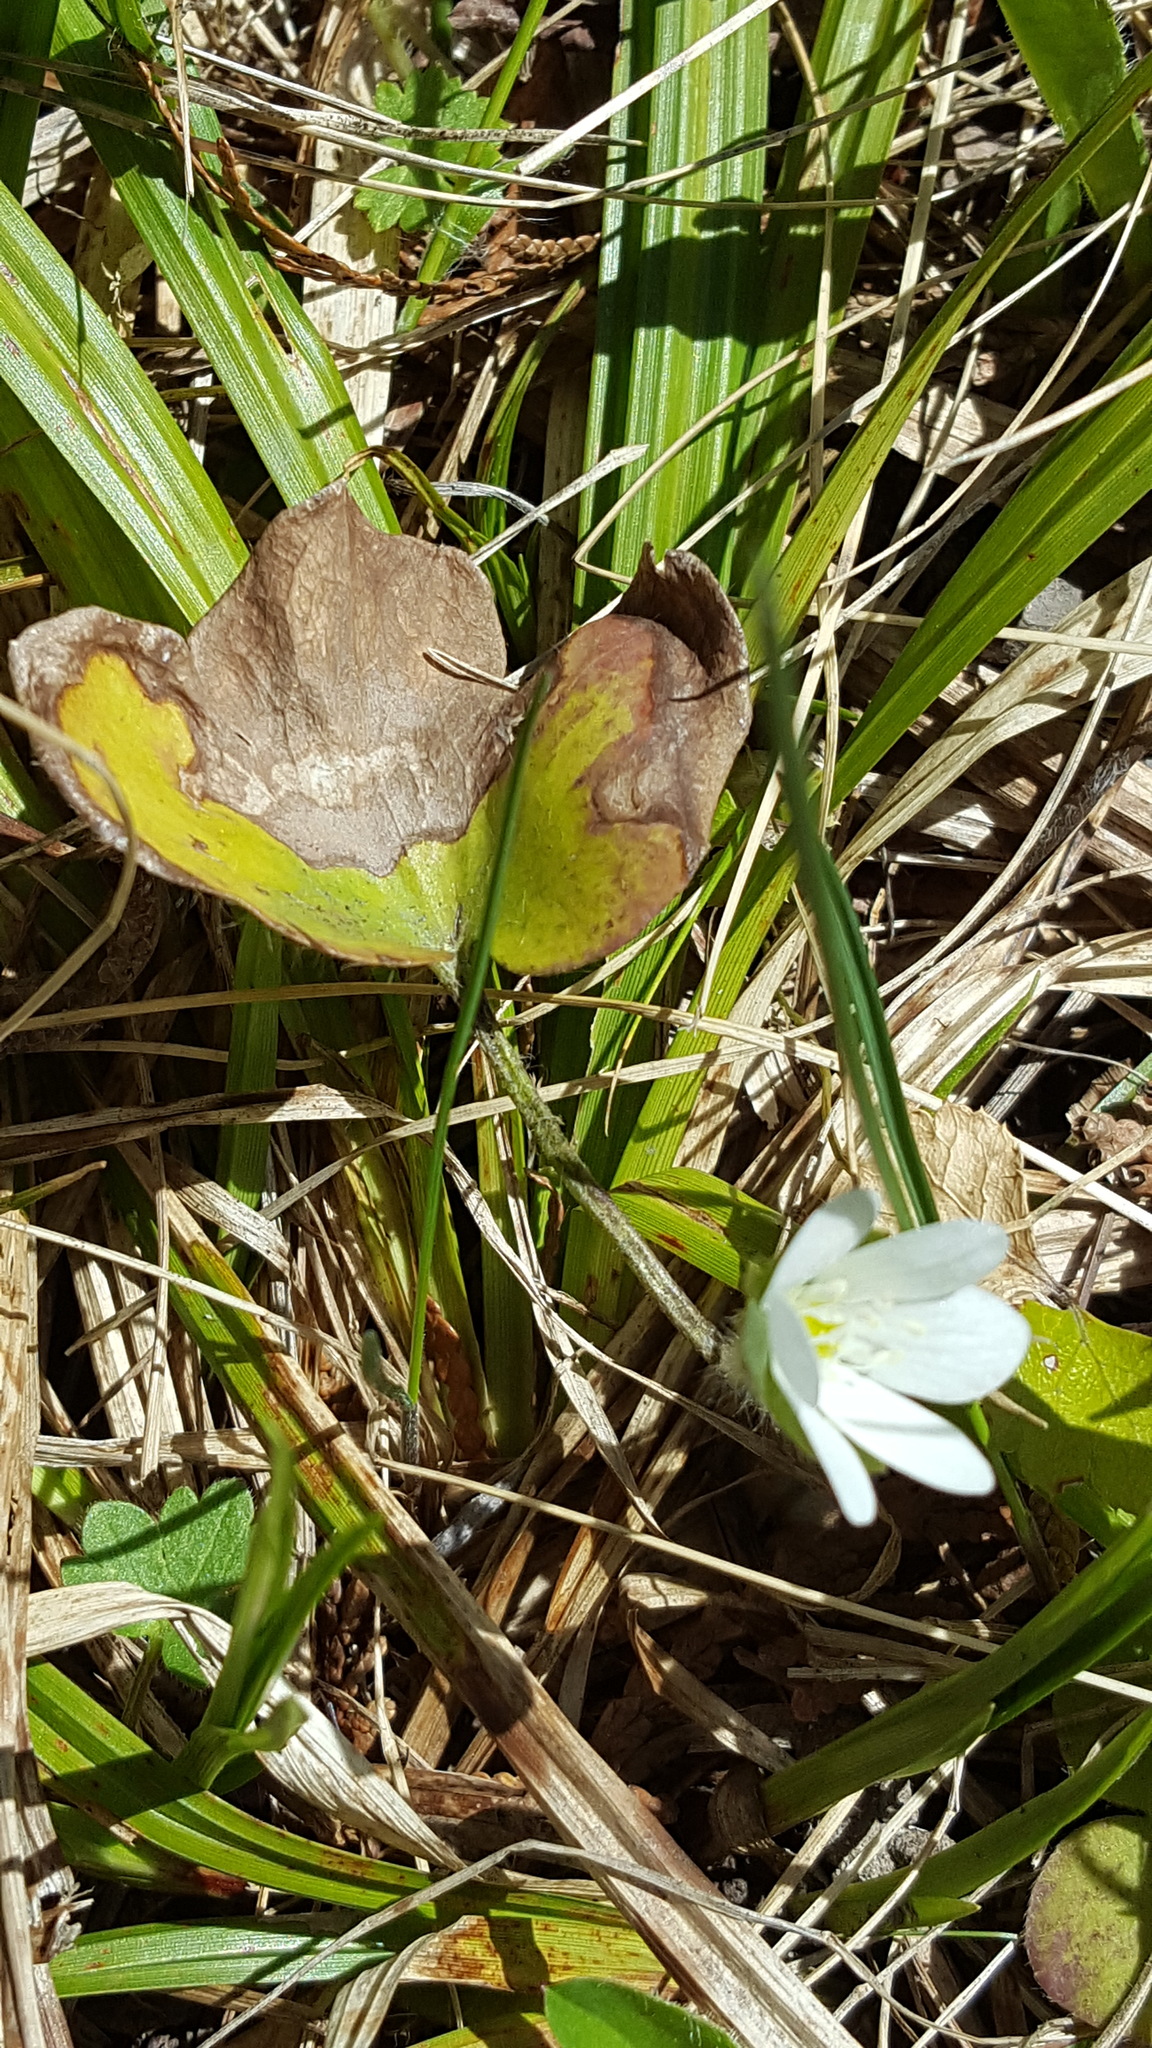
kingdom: Plantae
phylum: Tracheophyta
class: Magnoliopsida
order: Ranunculales
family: Ranunculaceae
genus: Hepatica
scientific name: Hepatica americana
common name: American hepatica
